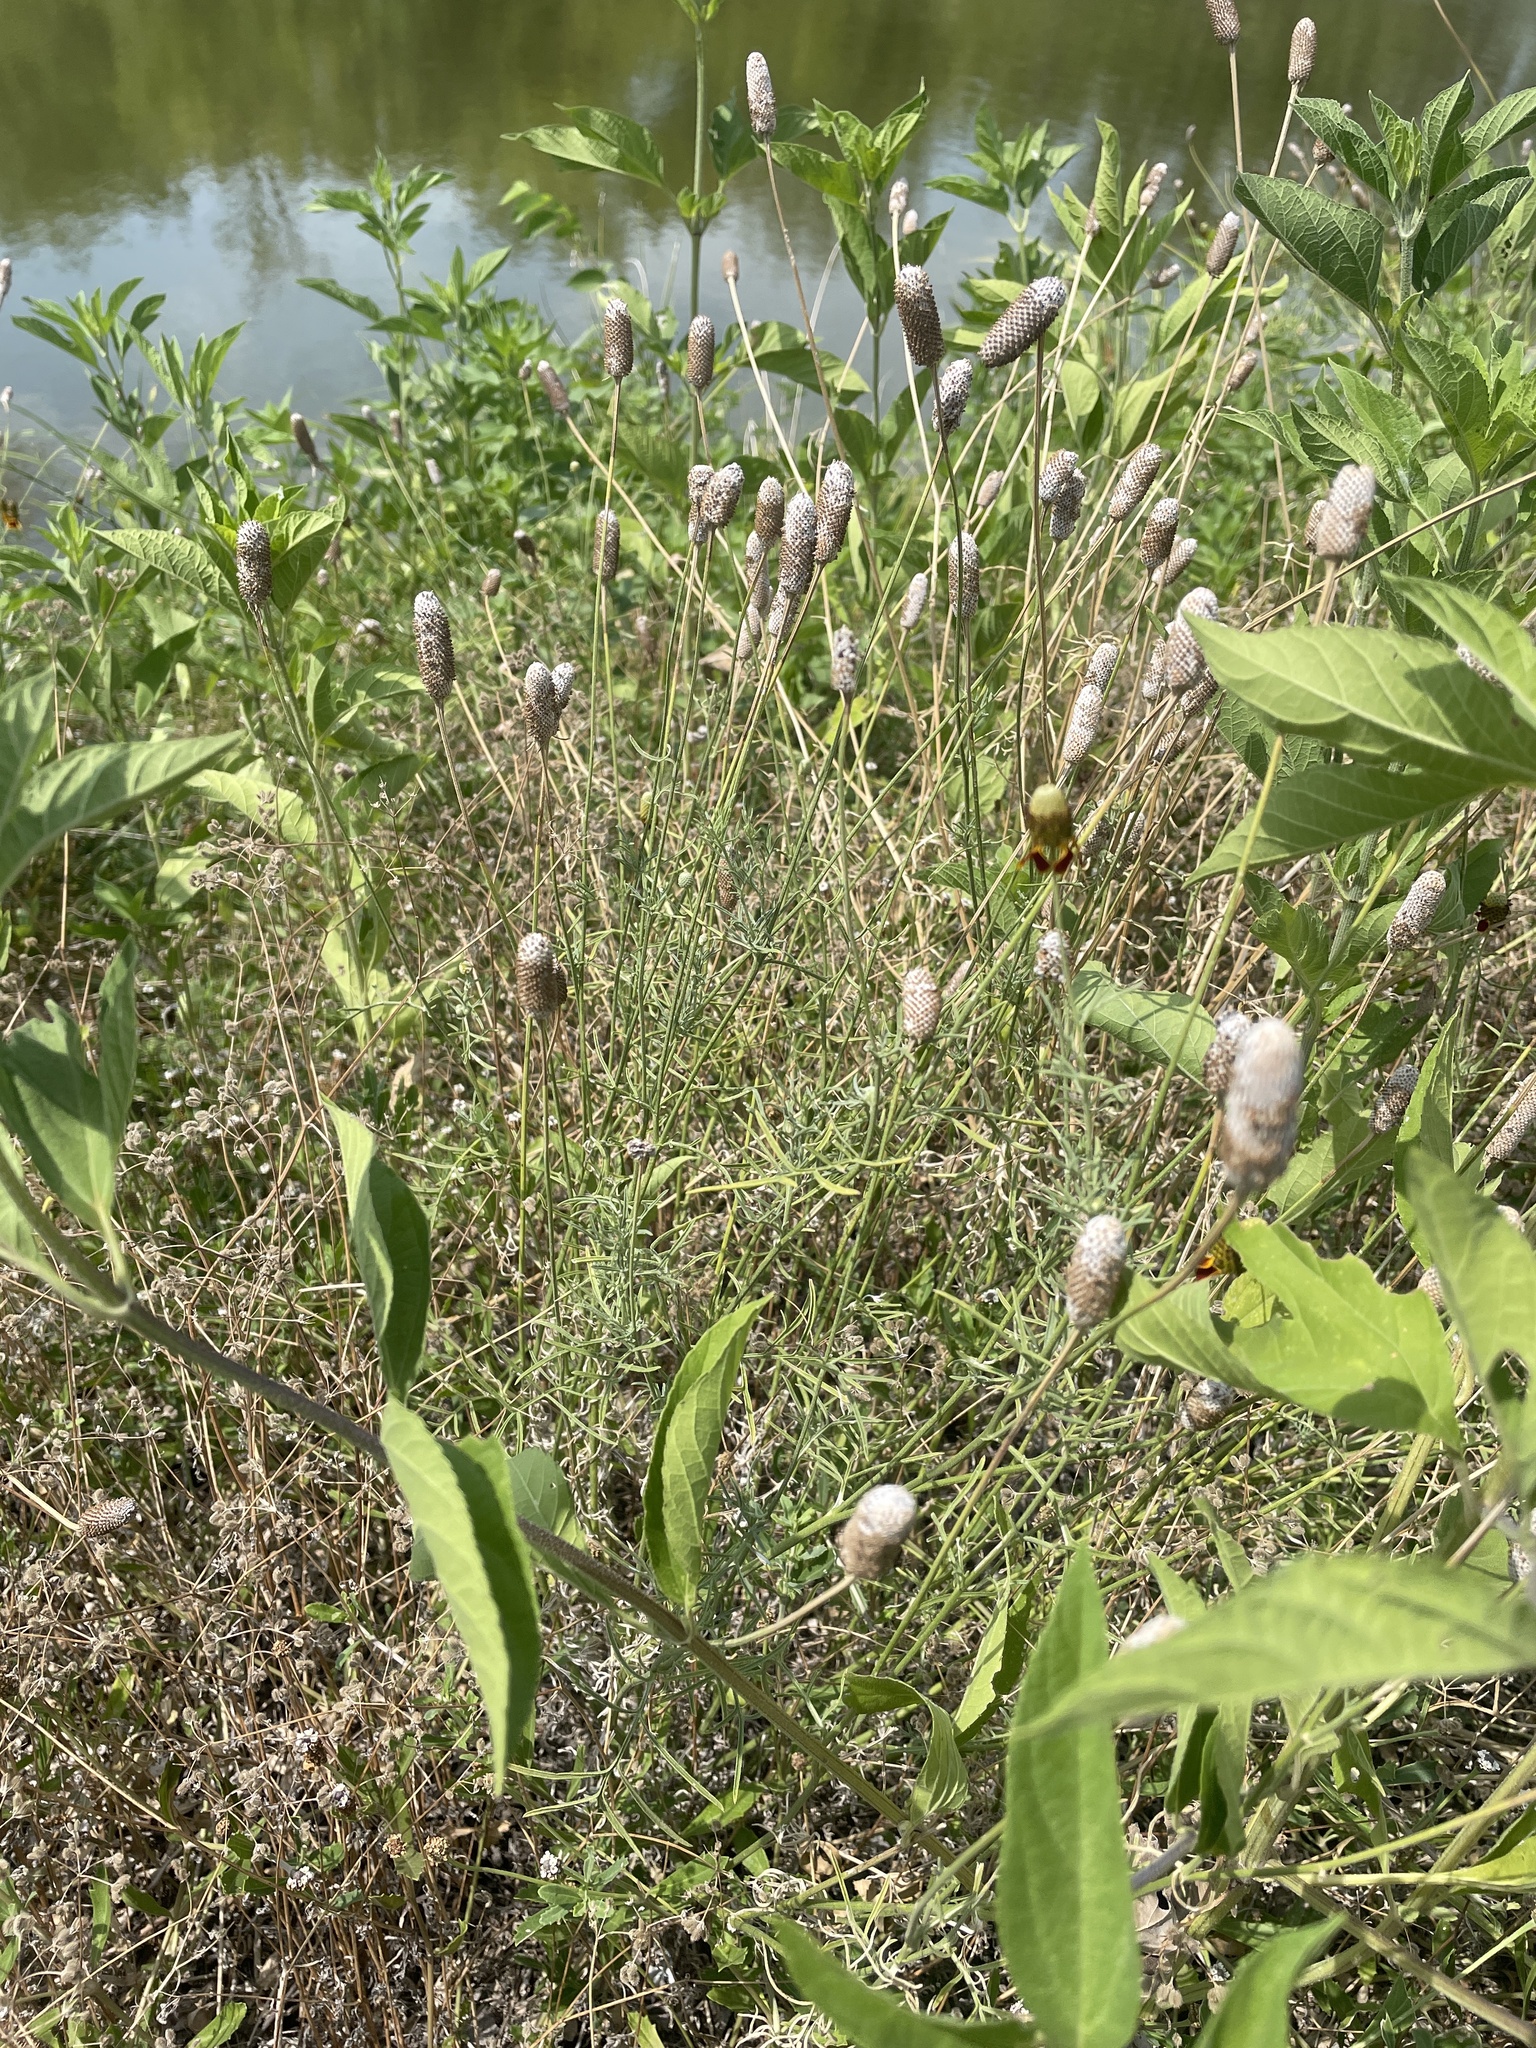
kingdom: Plantae
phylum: Tracheophyta
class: Magnoliopsida
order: Asterales
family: Asteraceae
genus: Ratibida
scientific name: Ratibida columnifera
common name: Prairie coneflower
